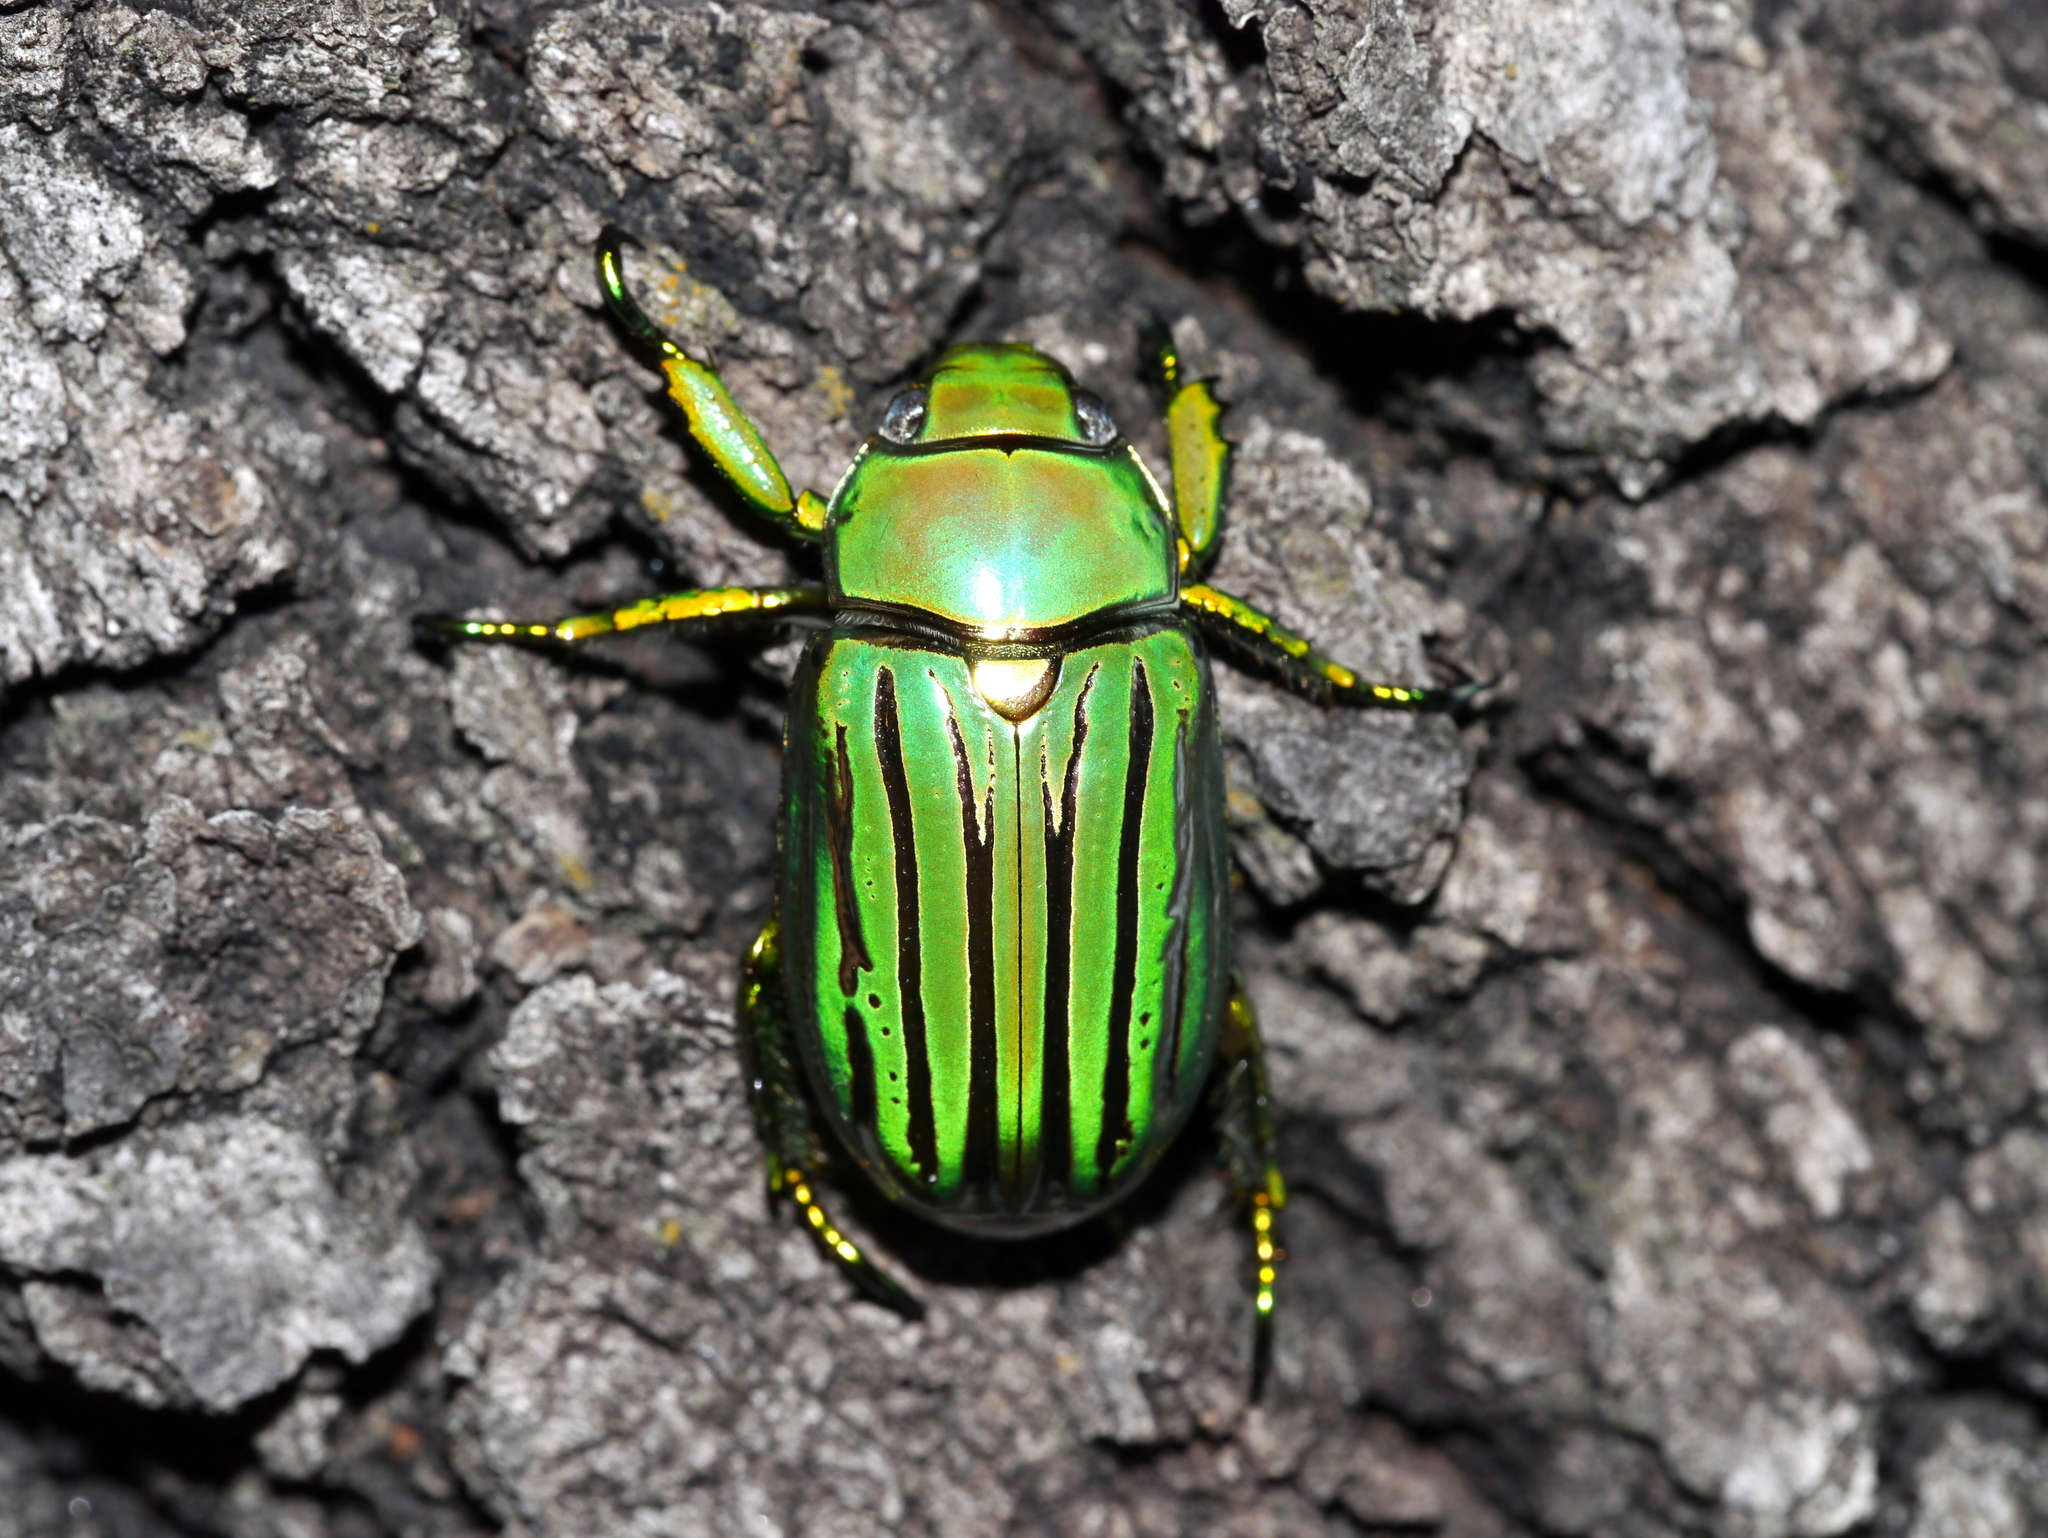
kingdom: Animalia
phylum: Arthropoda
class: Insecta
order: Coleoptera
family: Scarabaeidae
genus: Chrysina
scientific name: Chrysina gloriosa
